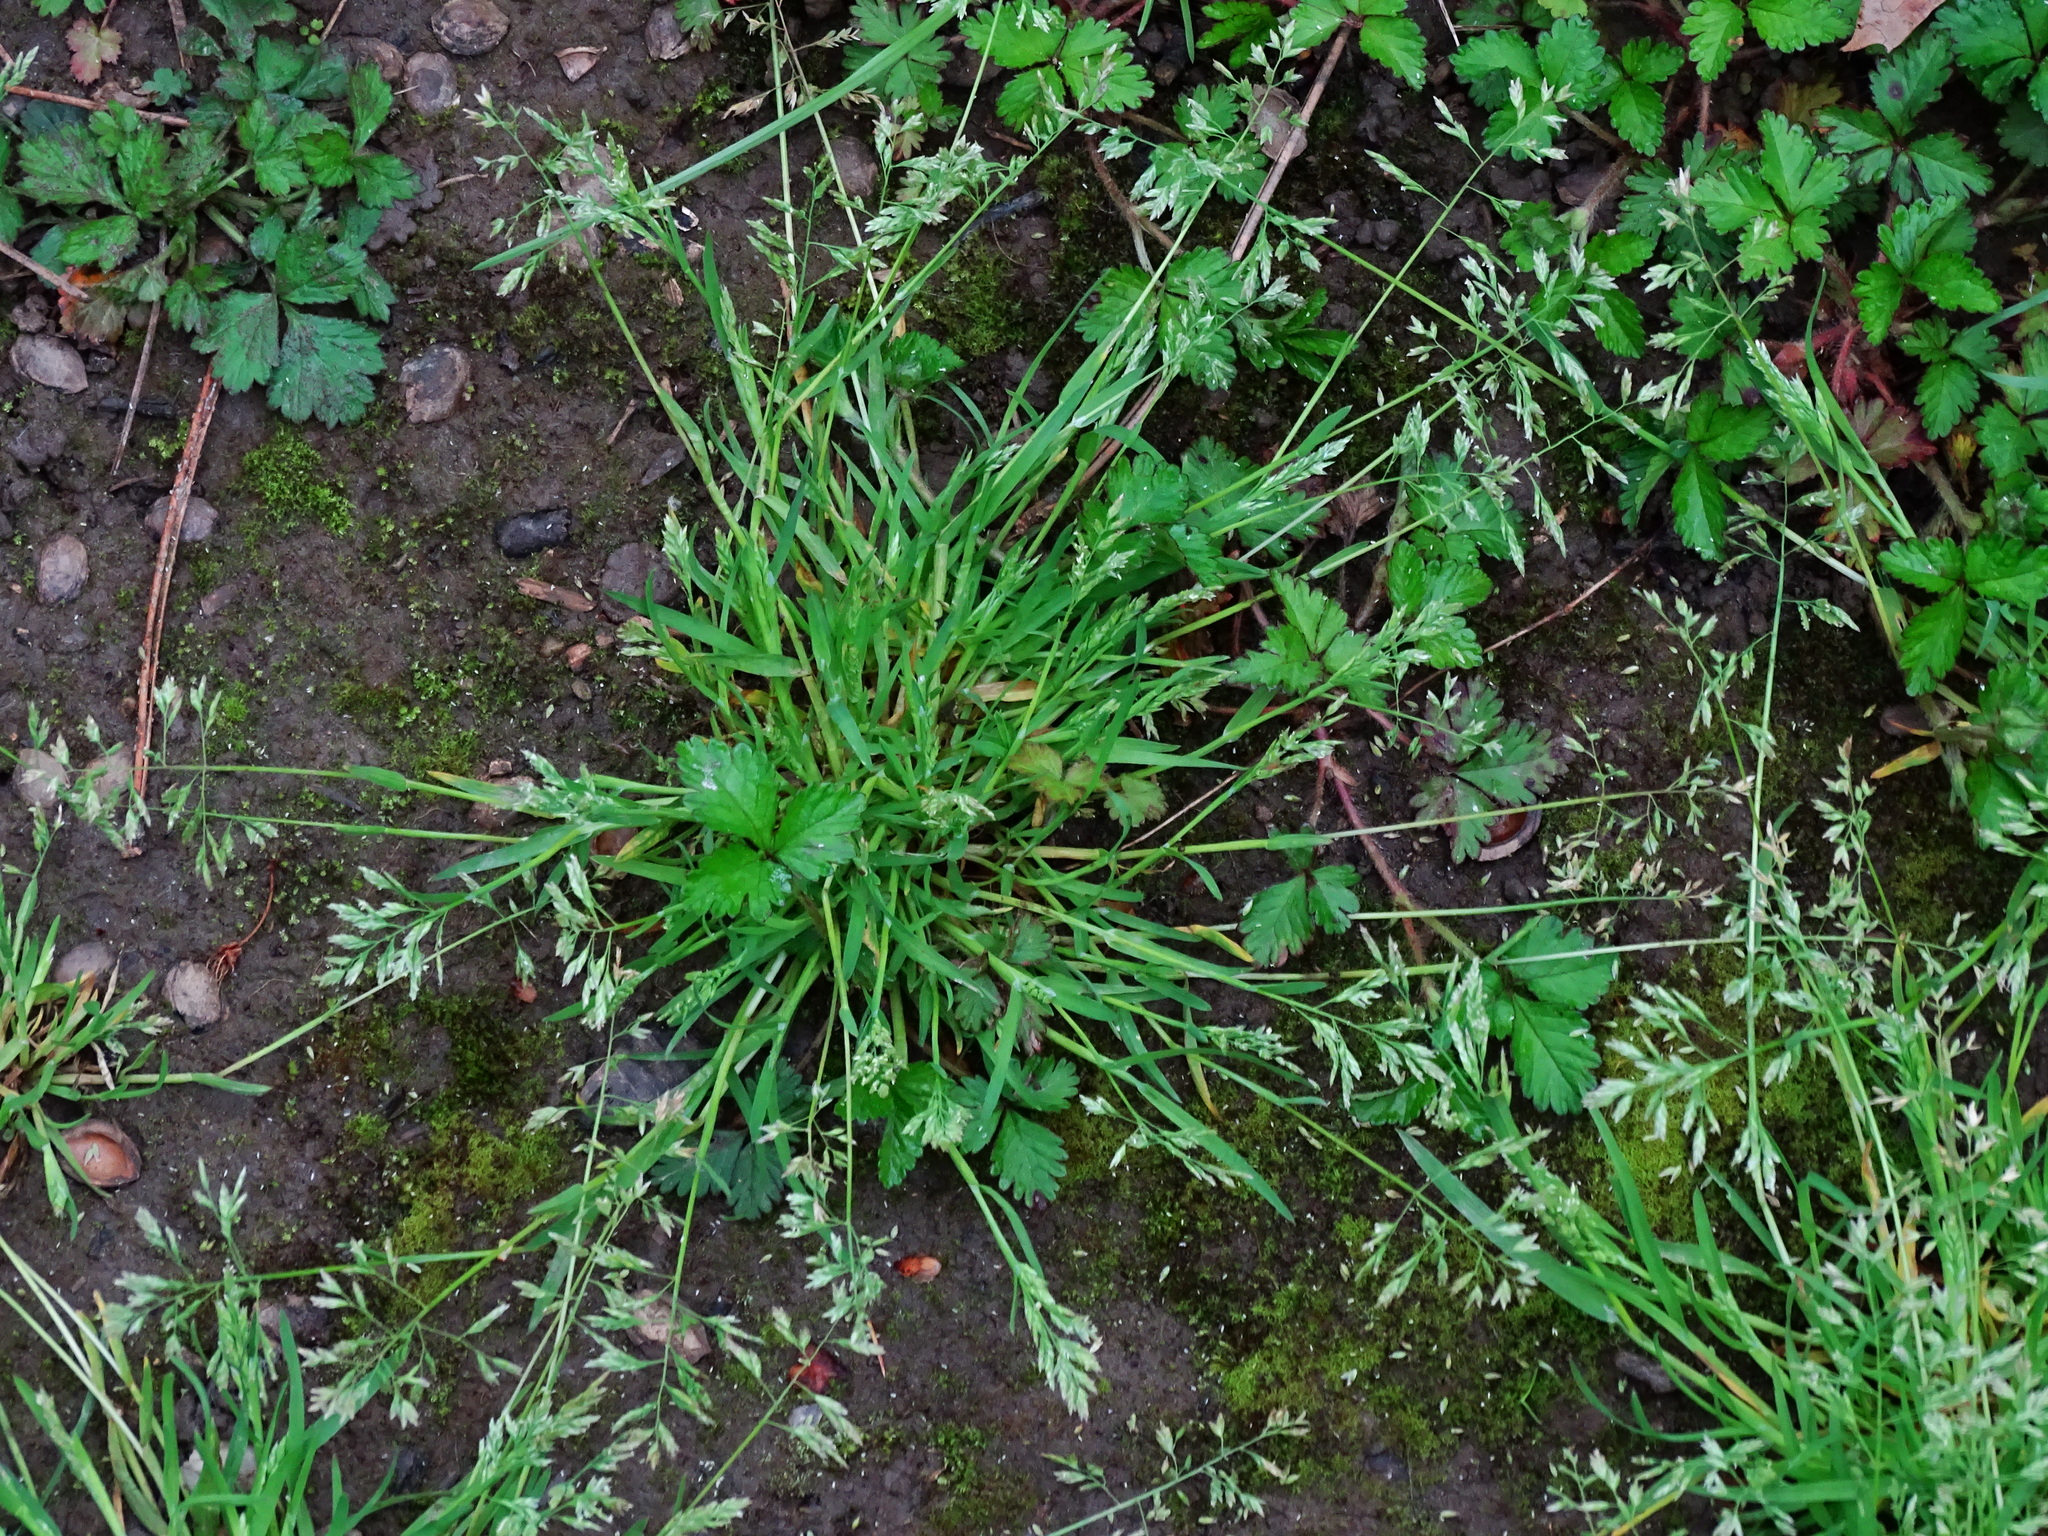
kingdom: Plantae
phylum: Tracheophyta
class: Liliopsida
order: Poales
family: Poaceae
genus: Poa
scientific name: Poa annua
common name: Annual bluegrass
